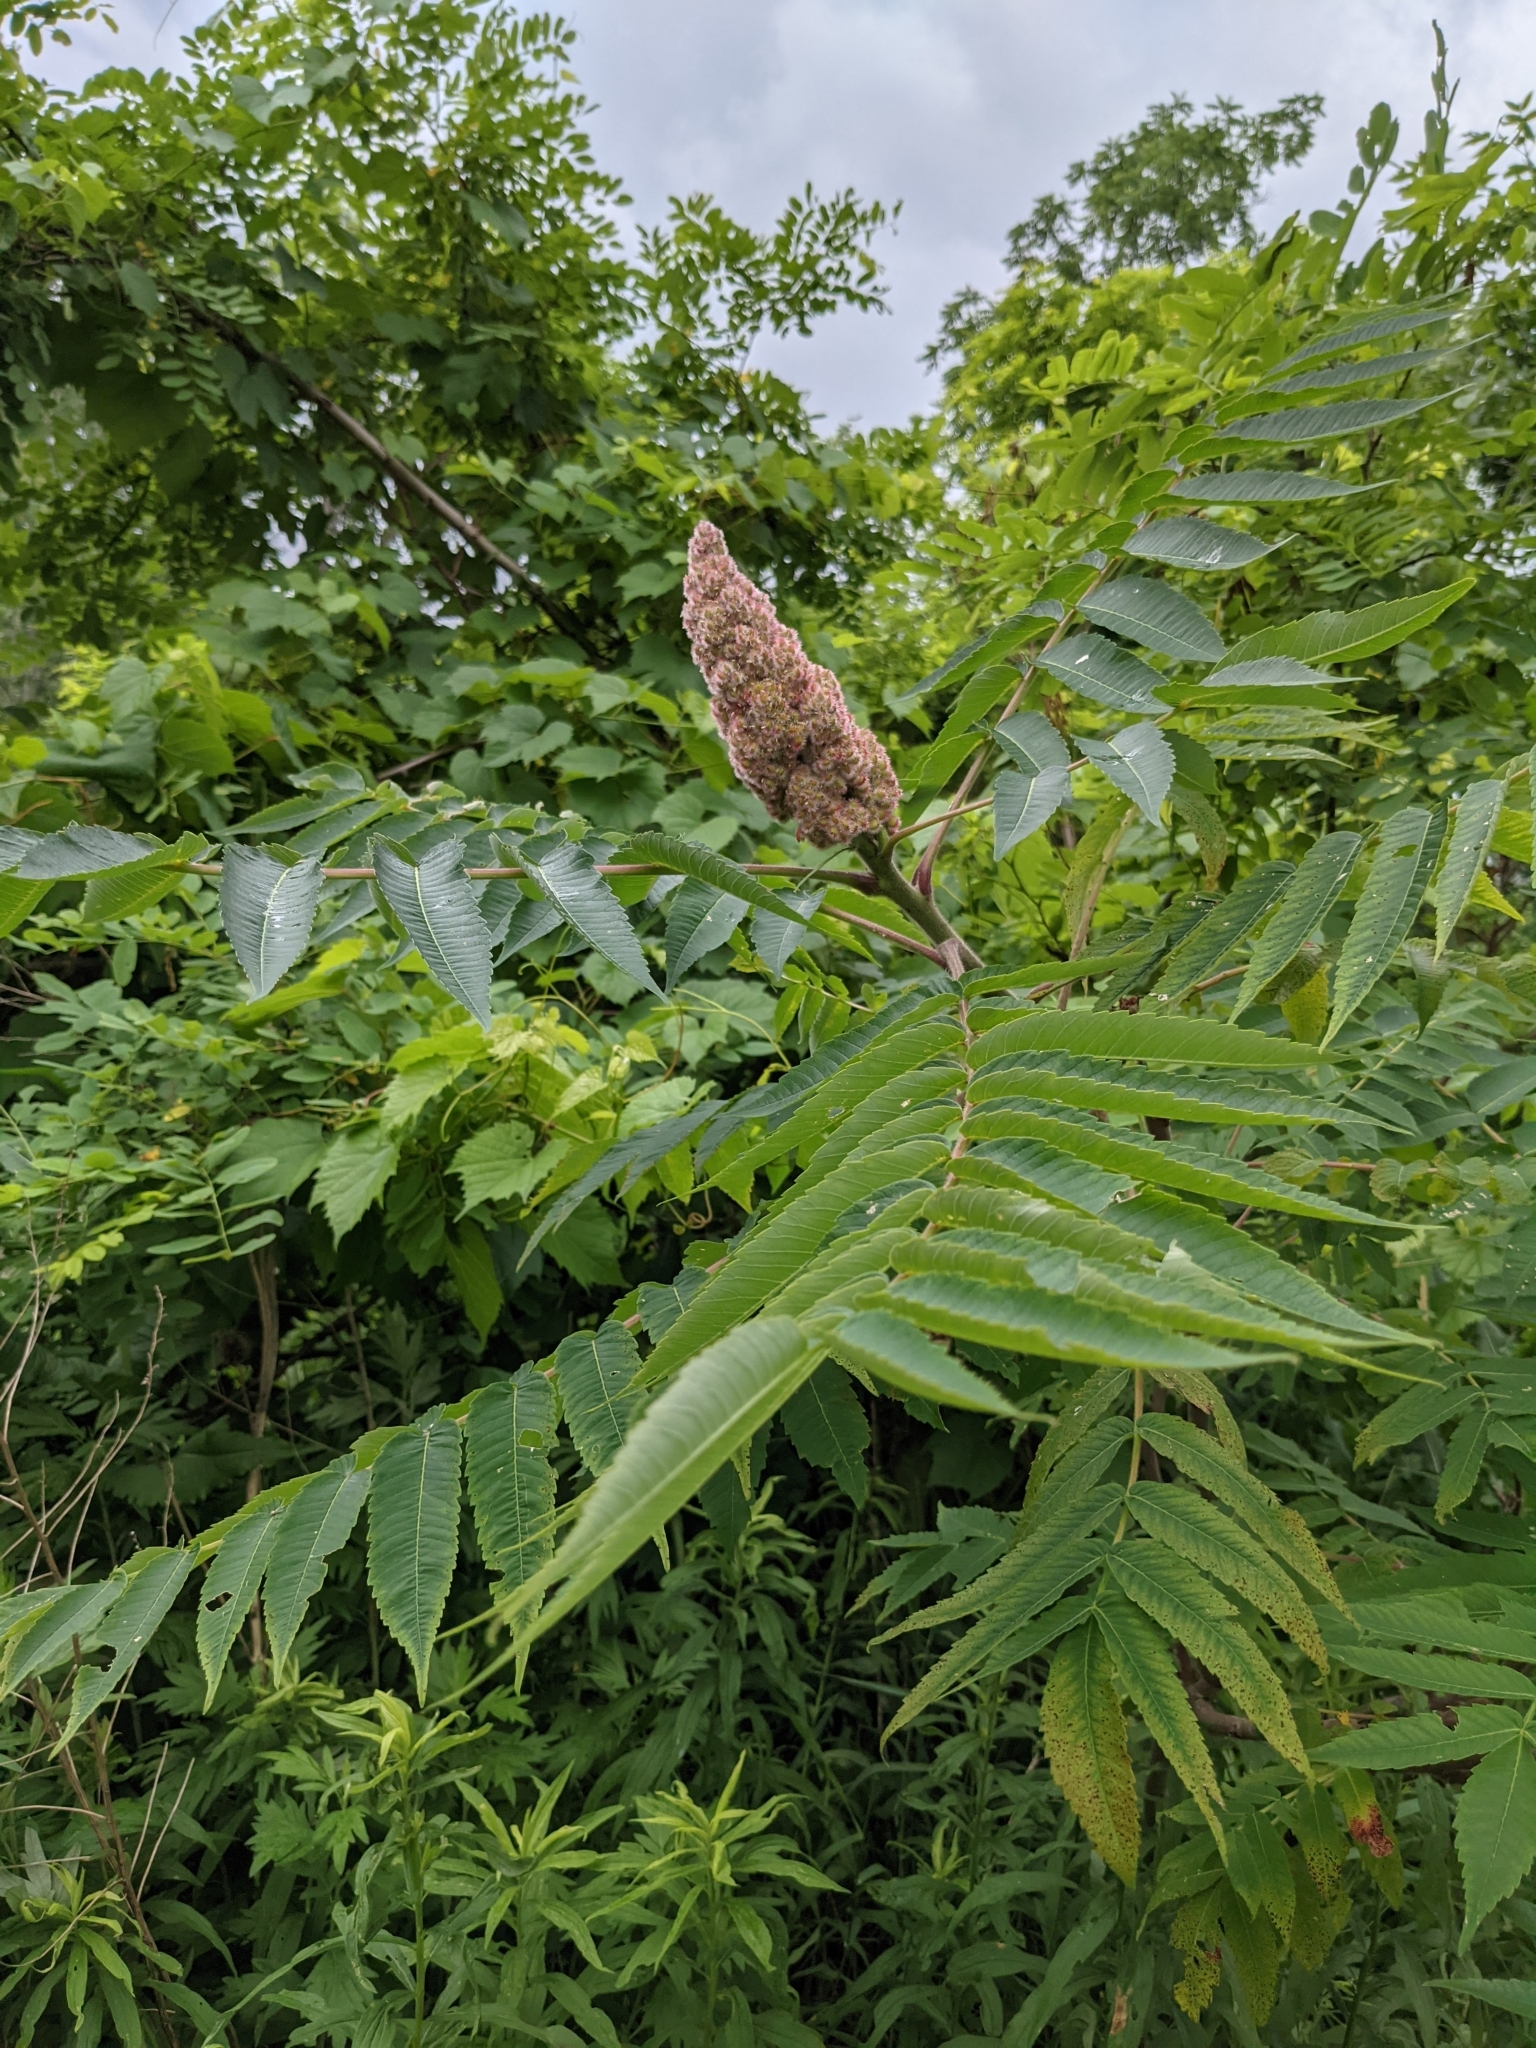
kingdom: Plantae
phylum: Tracheophyta
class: Magnoliopsida
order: Sapindales
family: Anacardiaceae
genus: Rhus
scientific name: Rhus typhina
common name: Staghorn sumac
